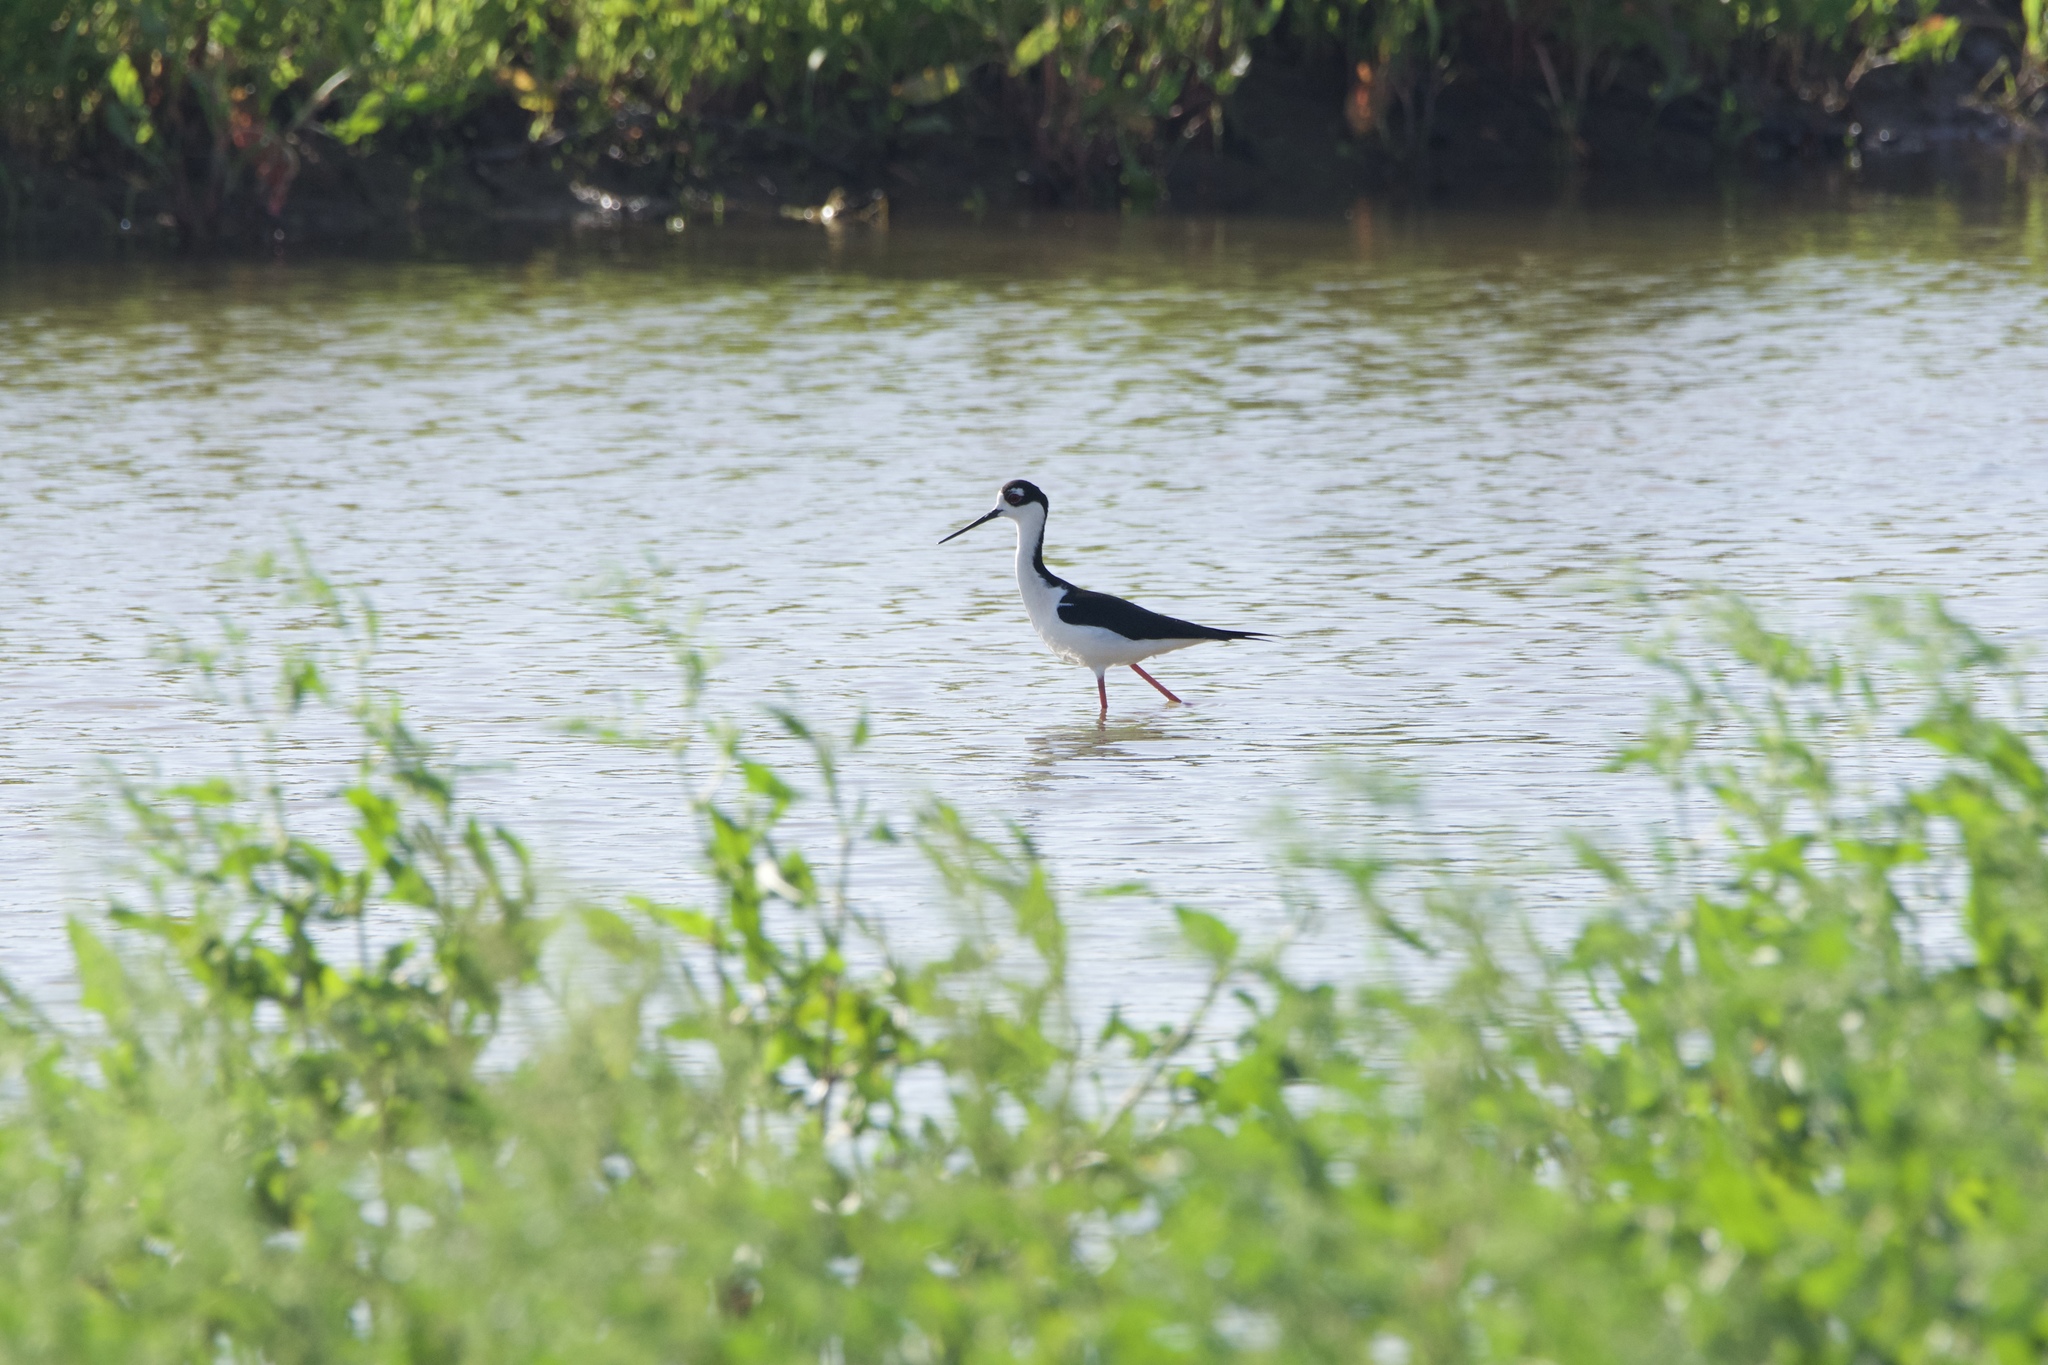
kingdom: Animalia
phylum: Chordata
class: Aves
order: Charadriiformes
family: Recurvirostridae
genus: Himantopus
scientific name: Himantopus mexicanus
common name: Black-necked stilt
